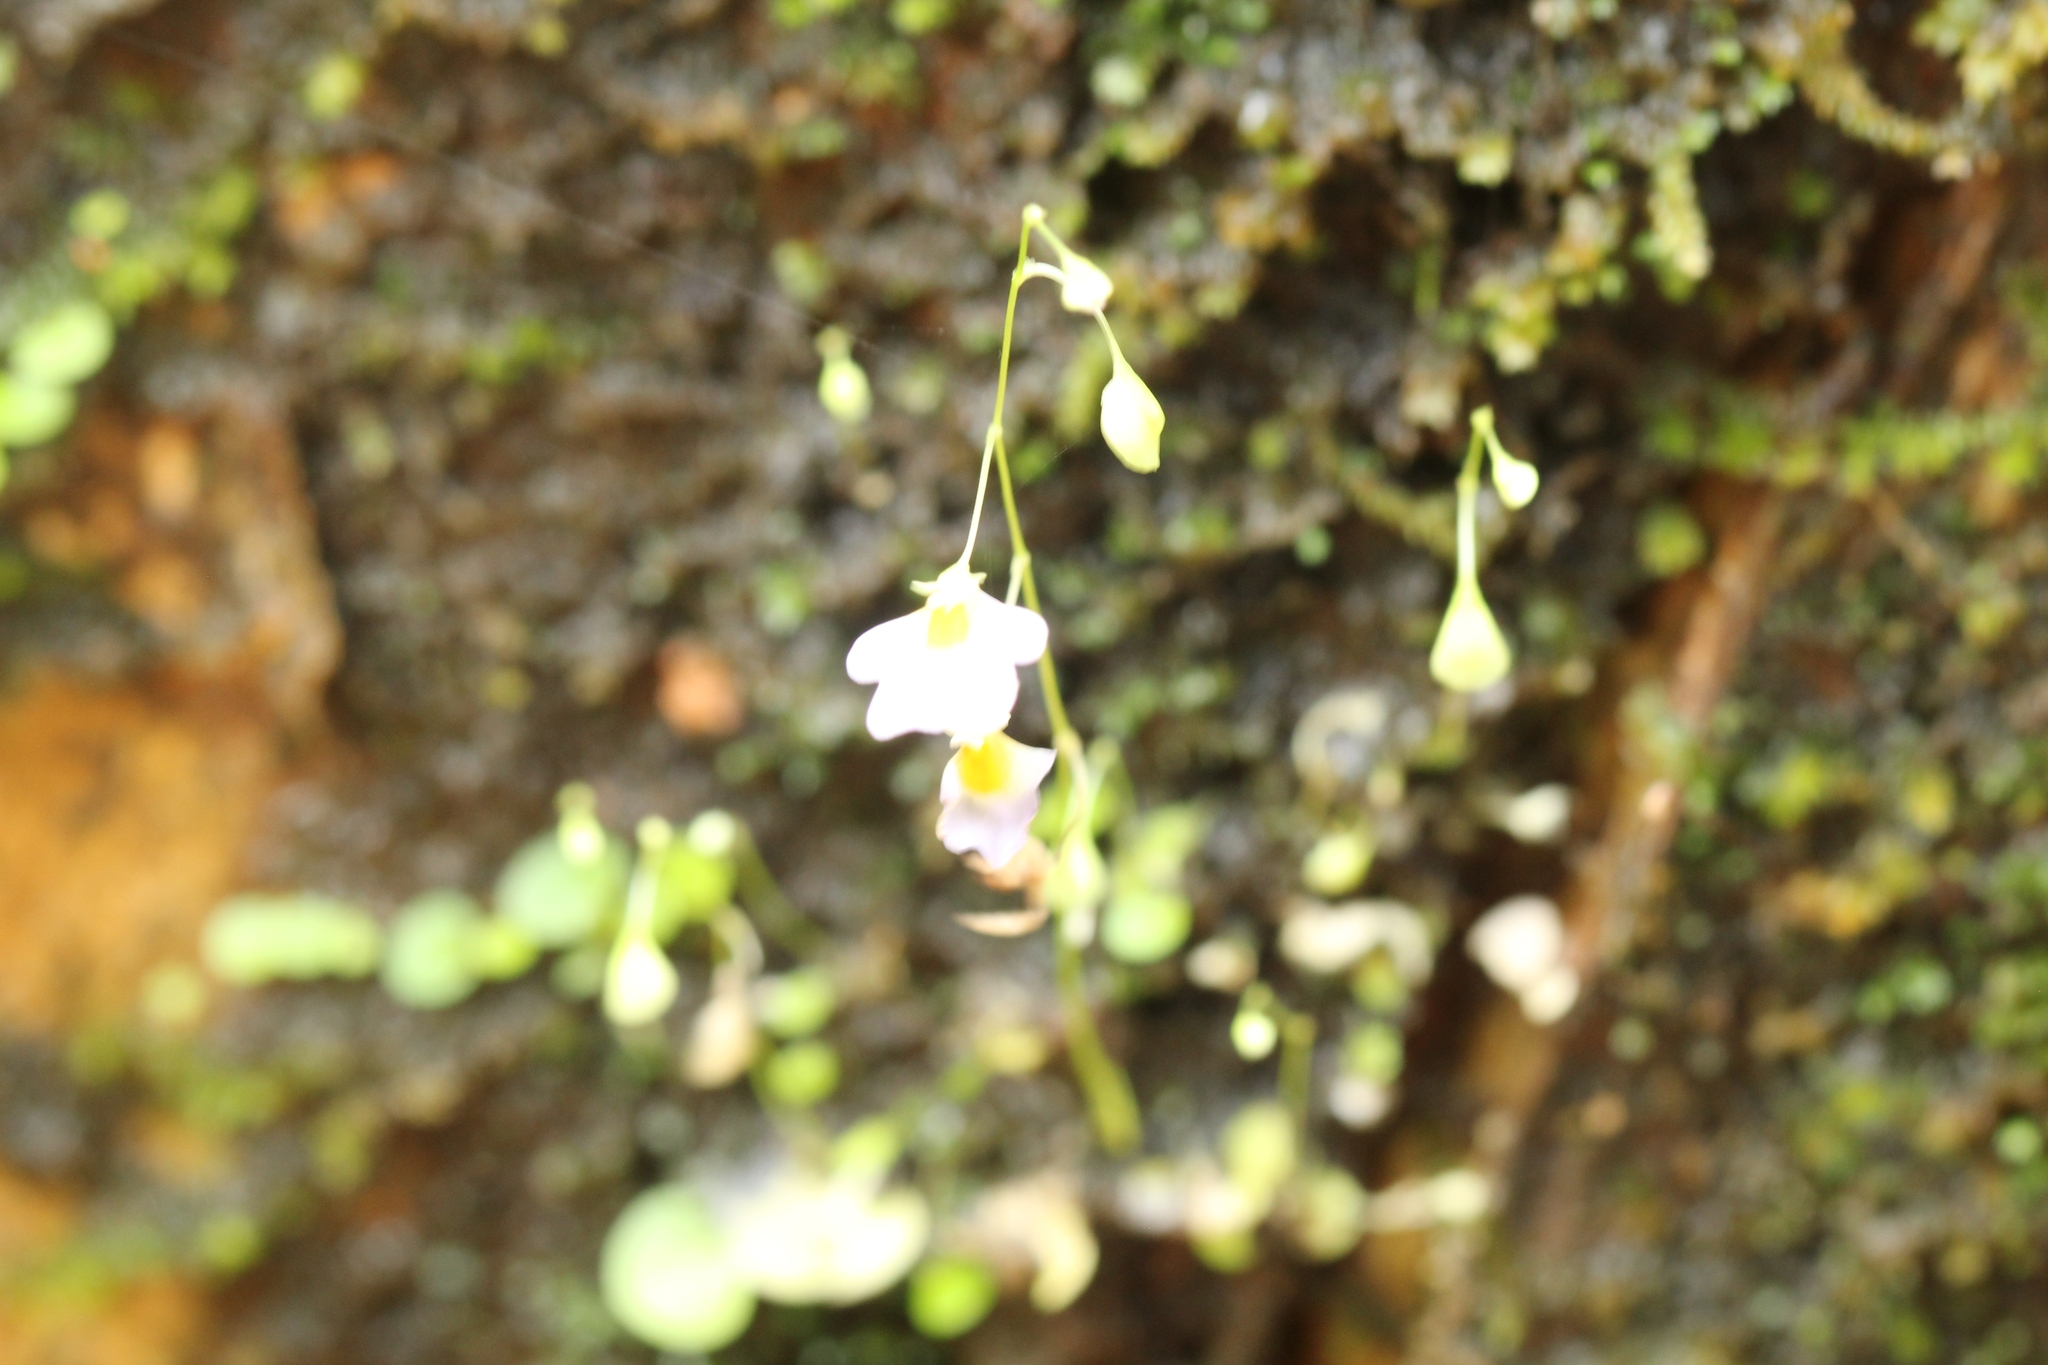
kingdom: Plantae
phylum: Tracheophyta
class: Magnoliopsida
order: Lamiales
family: Lentibulariaceae
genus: Utricularia
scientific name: Utricularia striatula
